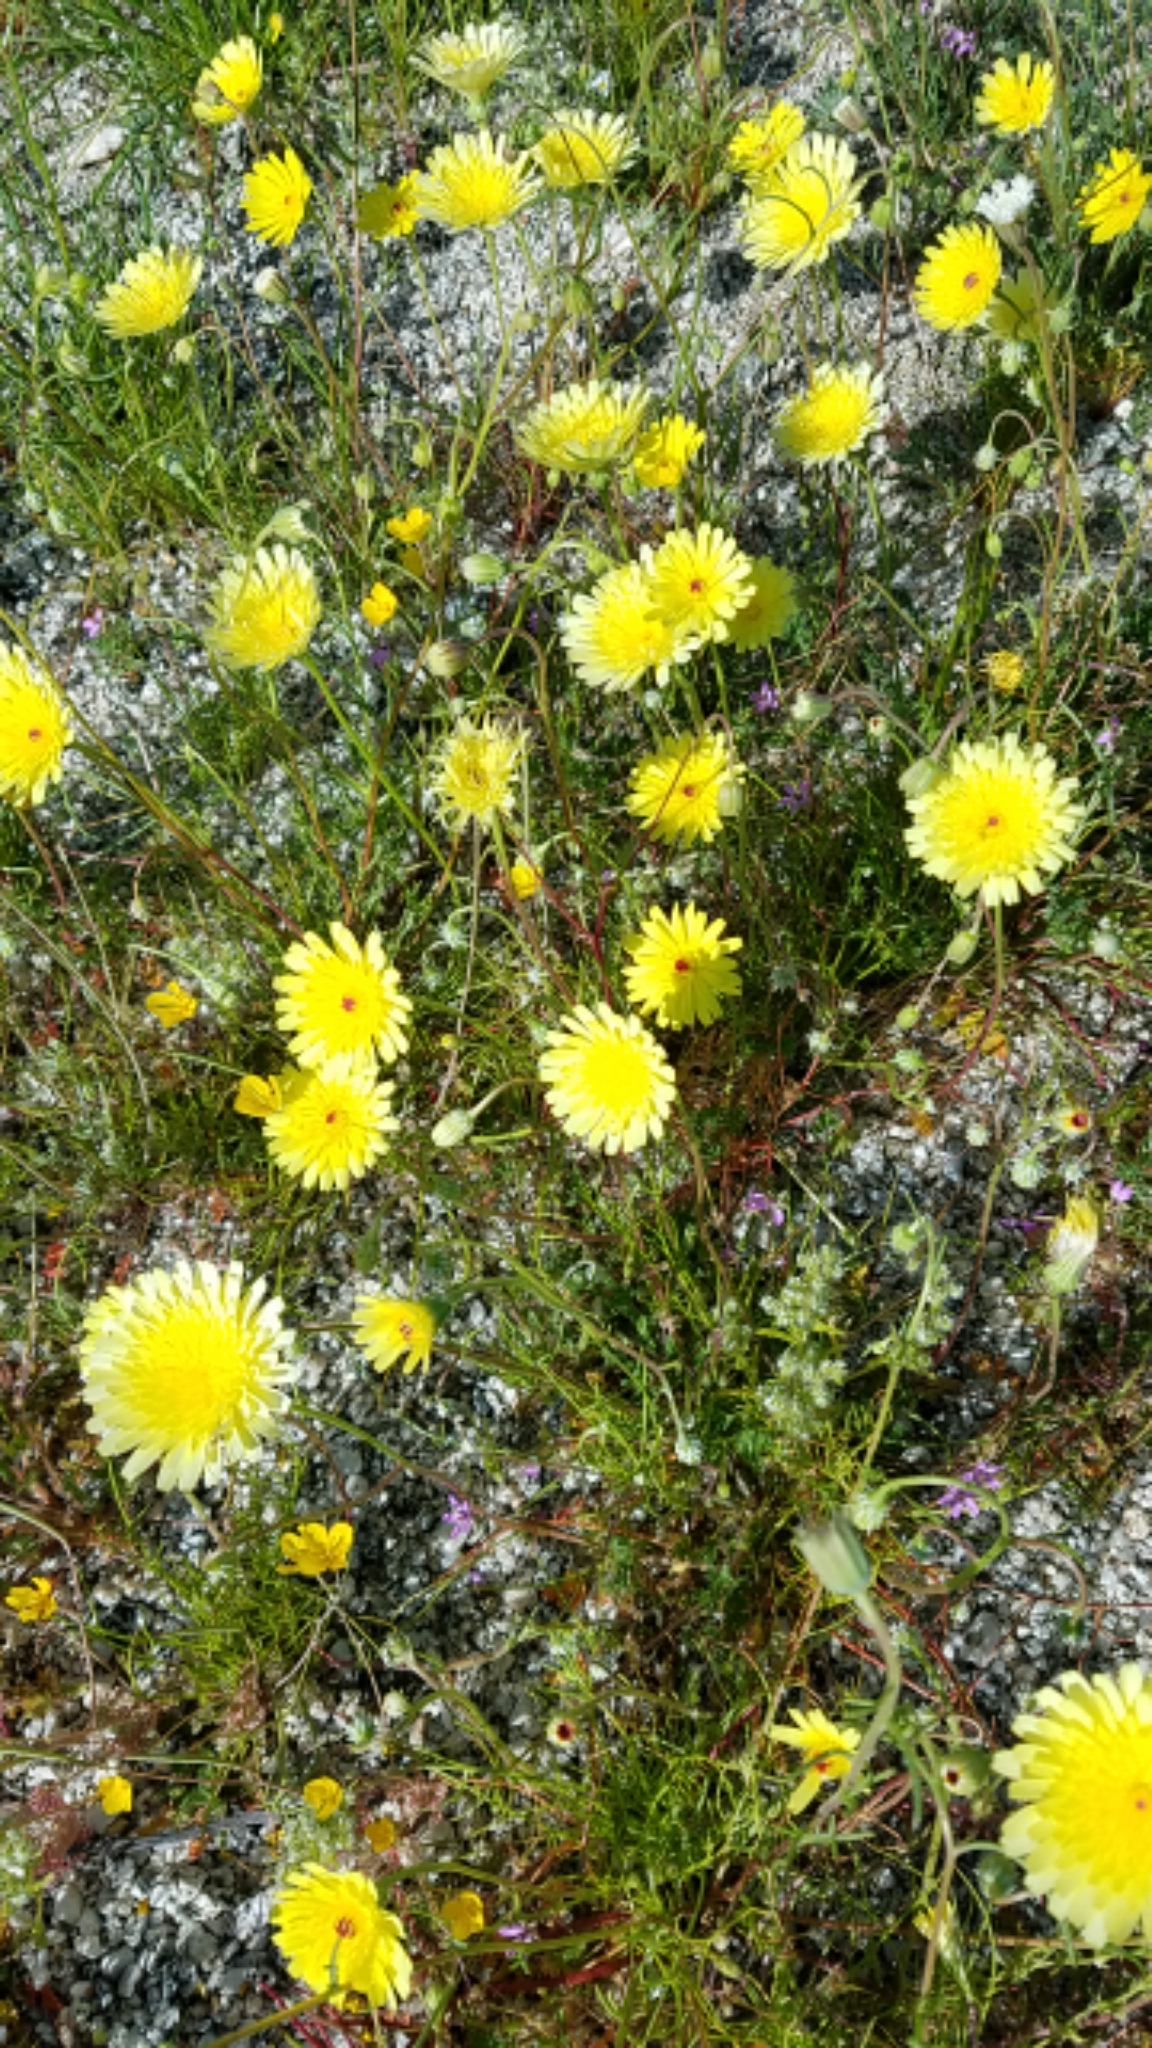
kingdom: Plantae
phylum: Tracheophyta
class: Magnoliopsida
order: Asterales
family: Asteraceae
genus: Malacothrix
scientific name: Malacothrix glabrata
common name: Smooth desert-dandelion
